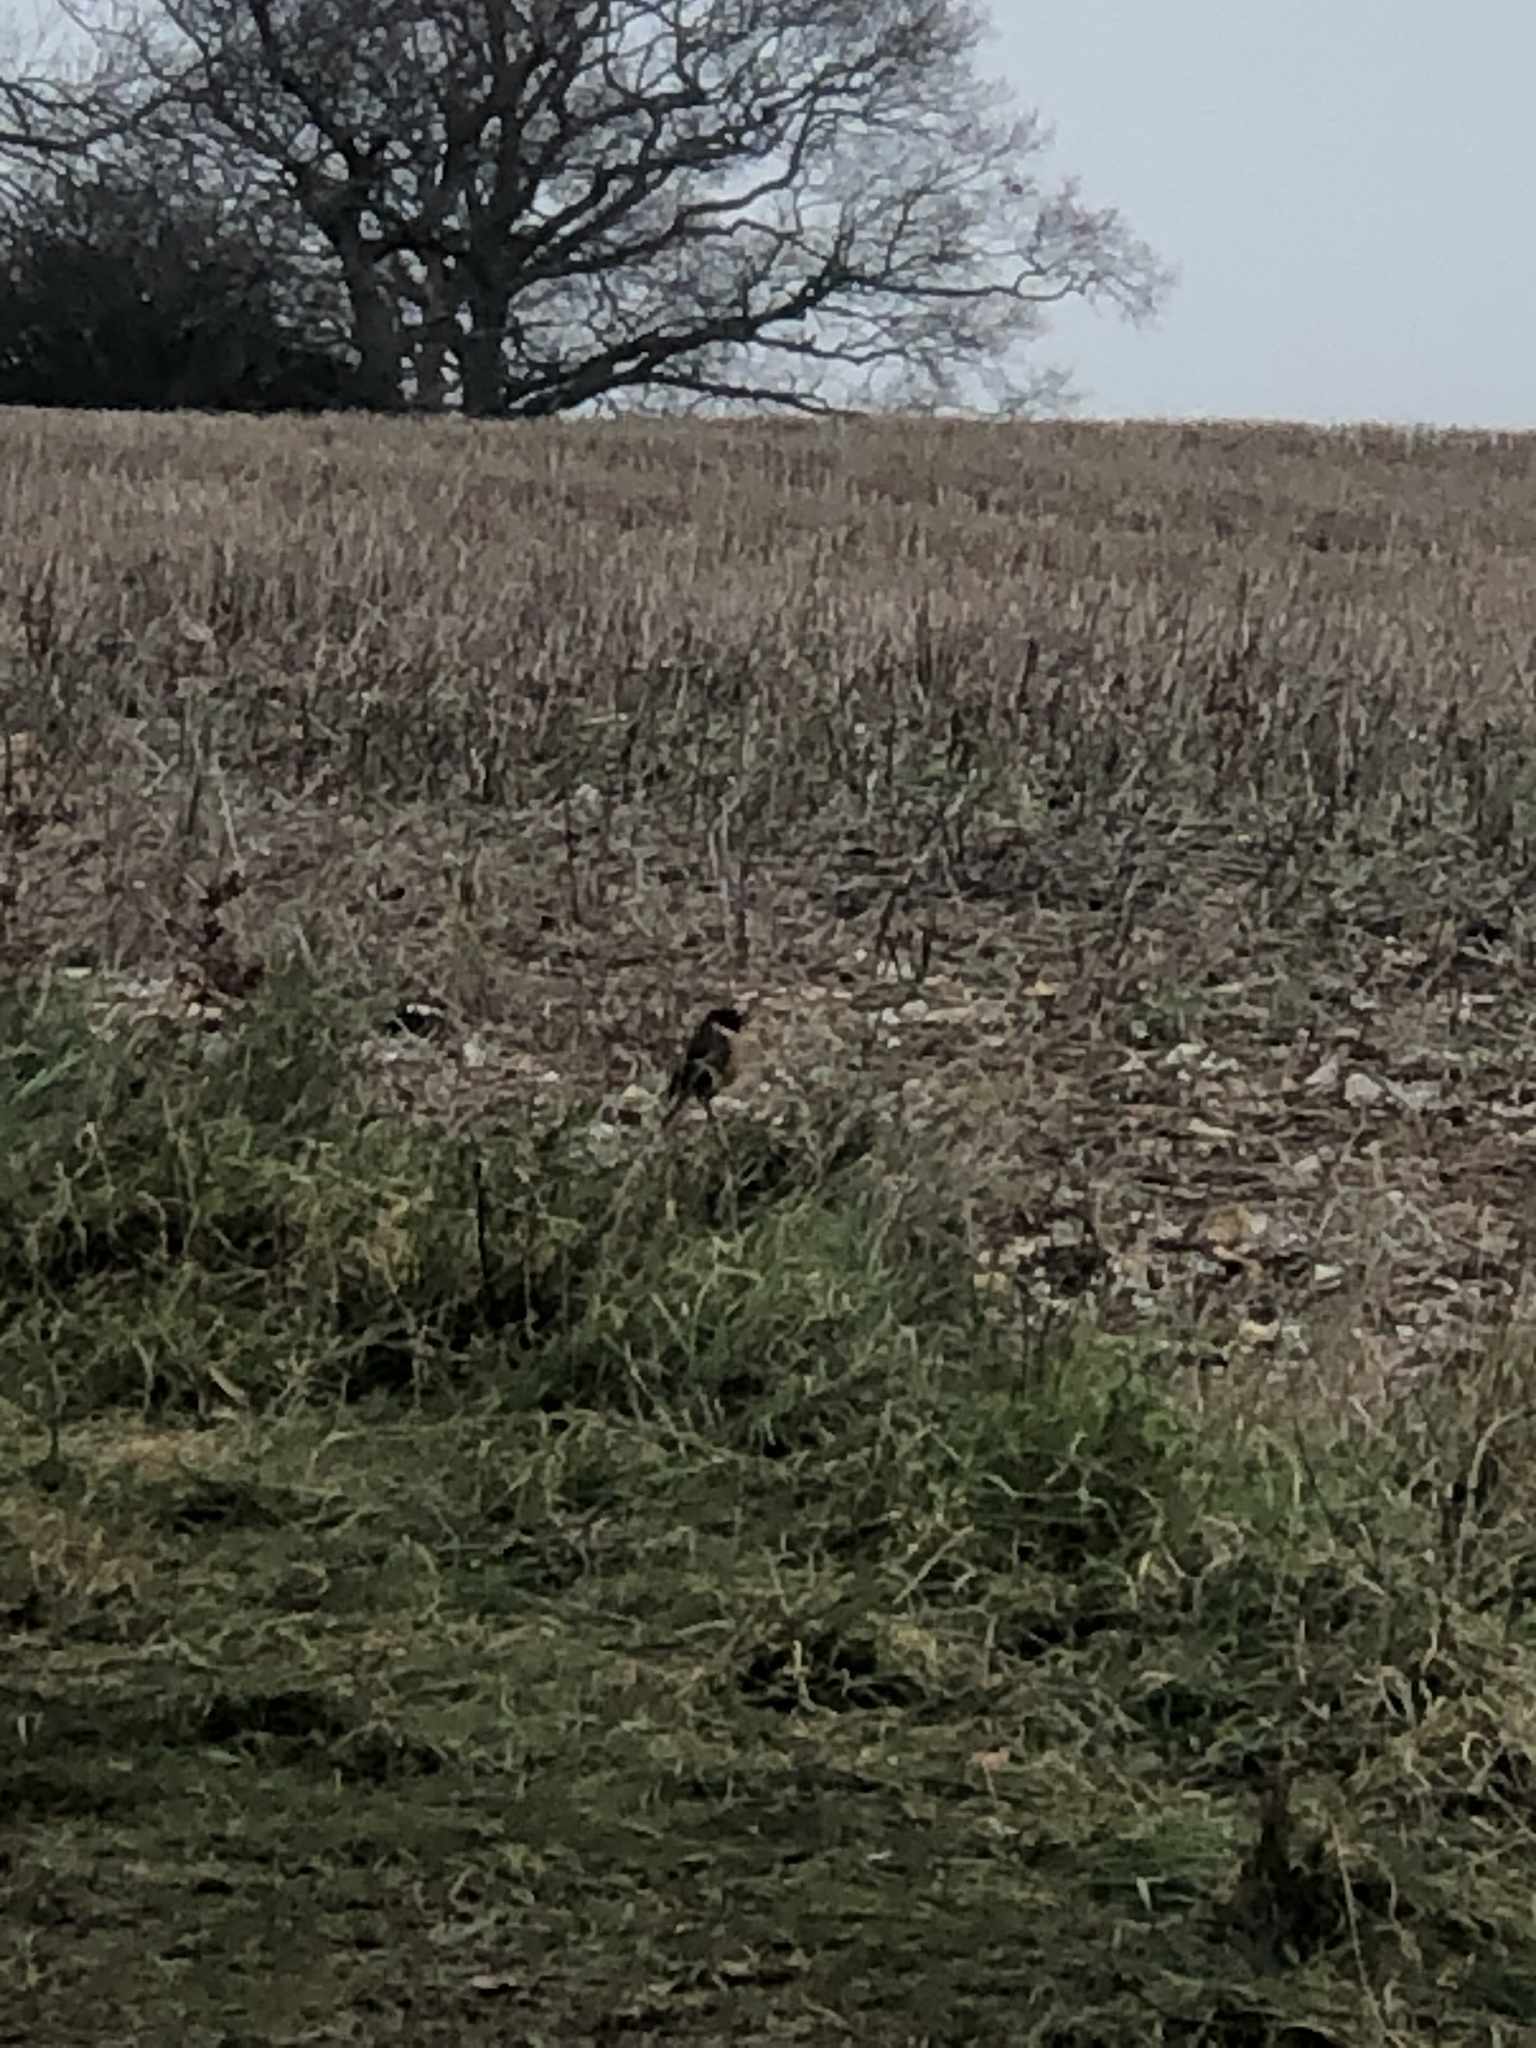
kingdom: Animalia
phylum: Chordata
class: Aves
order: Passeriformes
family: Muscicapidae
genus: Saxicola
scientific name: Saxicola rubicola
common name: European stonechat
